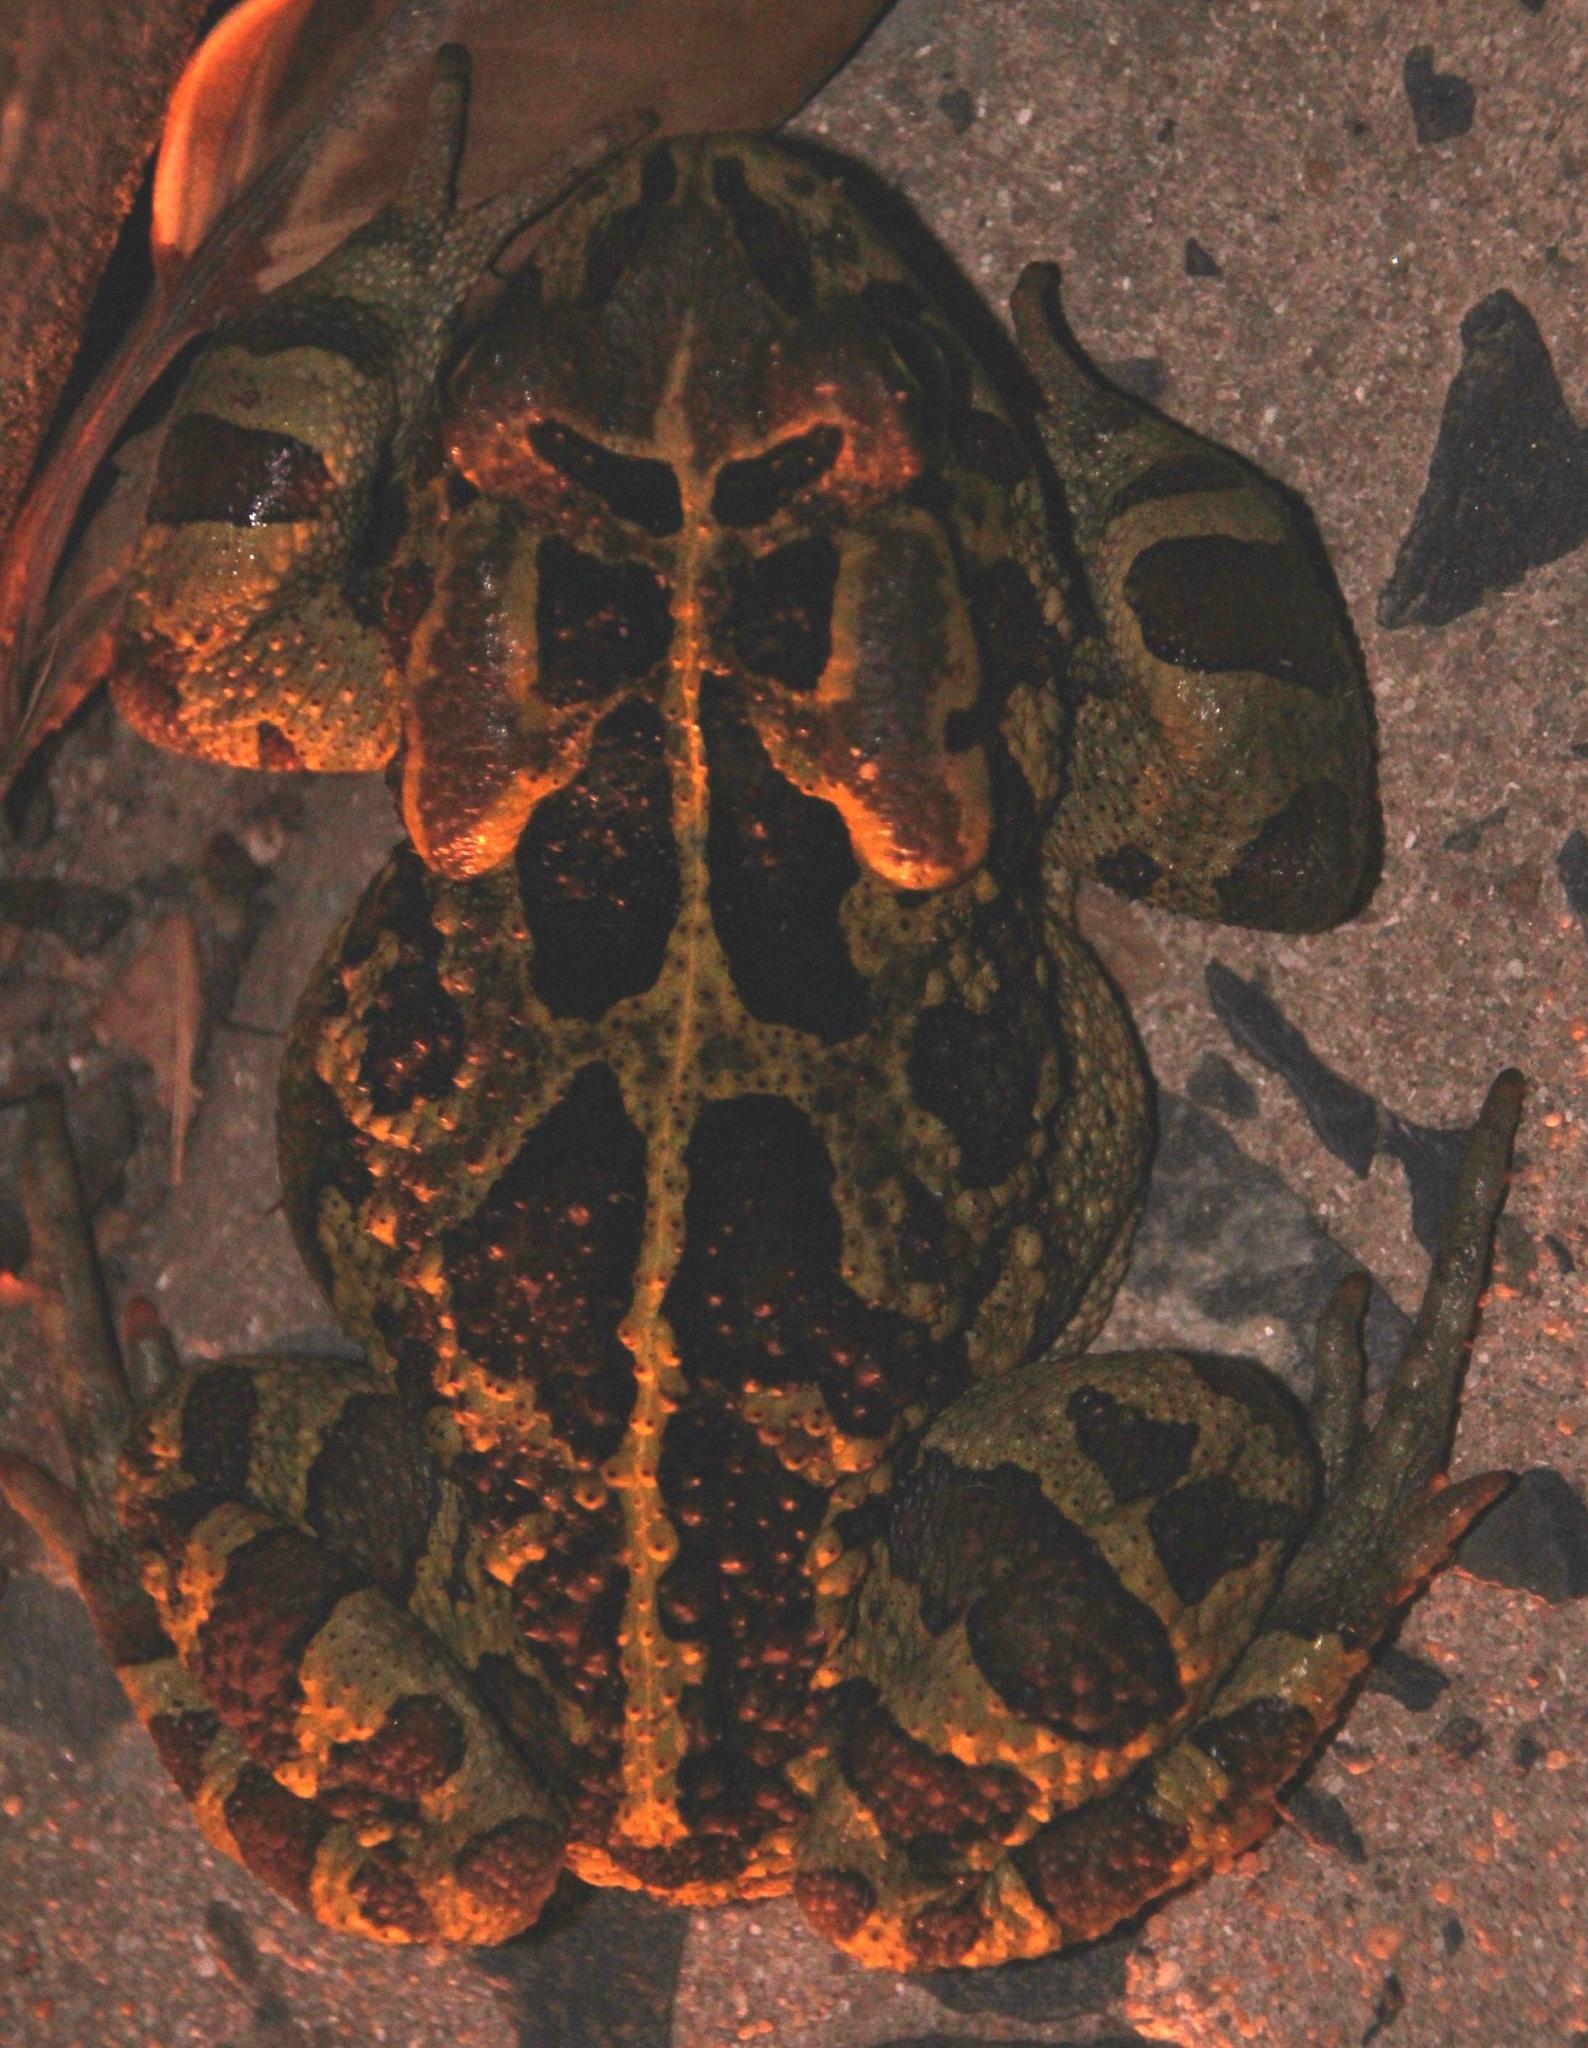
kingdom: Animalia
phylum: Chordata
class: Amphibia
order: Anura
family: Bufonidae
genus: Sclerophrys
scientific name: Sclerophrys pantherina
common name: Panther toad
